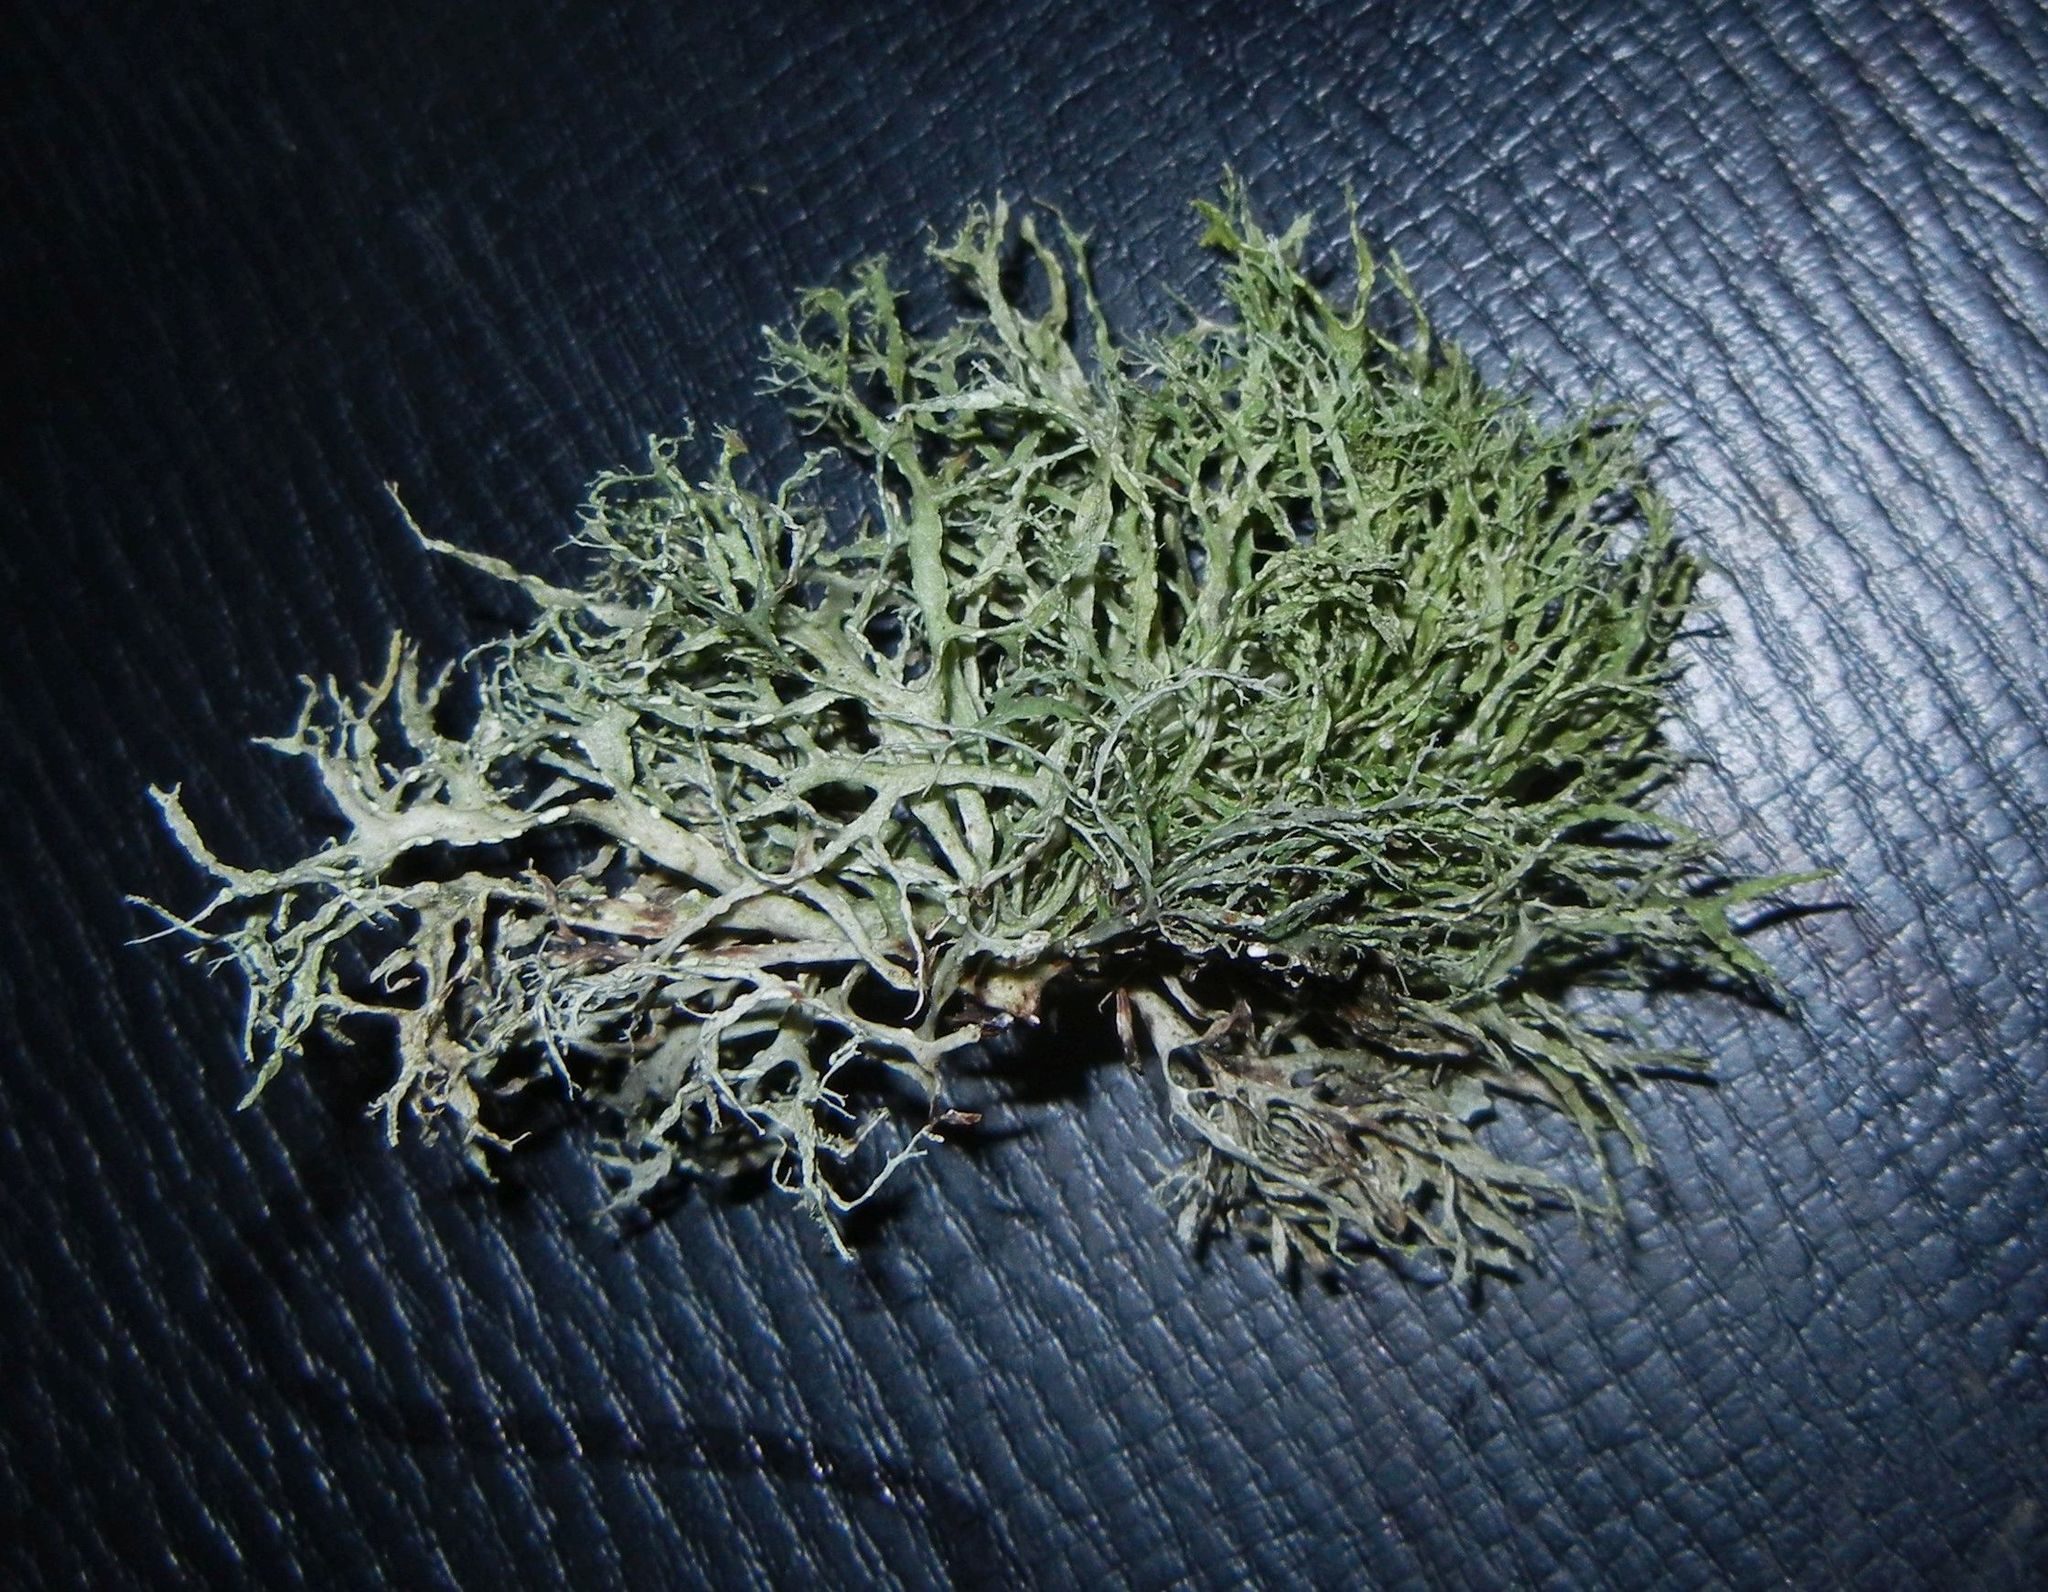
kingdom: Fungi
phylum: Ascomycota
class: Lecanoromycetes
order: Lecanorales
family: Ramalinaceae
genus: Ramalina
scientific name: Ramalina farinacea
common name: Farinose cartilage lichen
